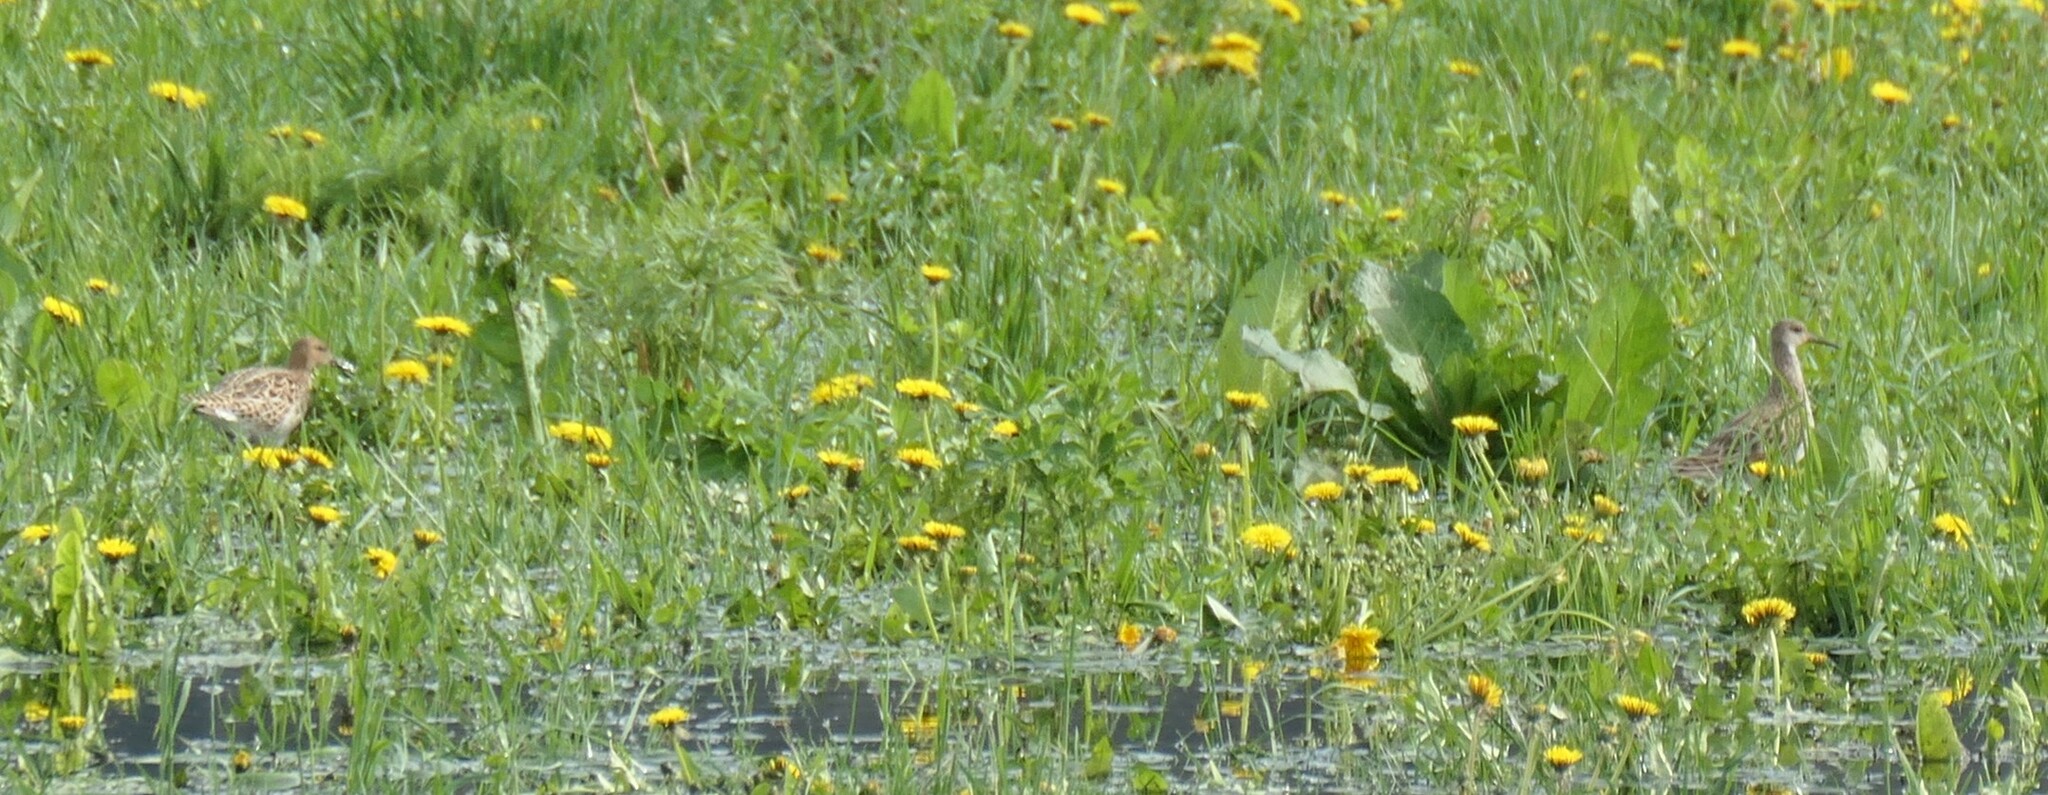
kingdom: Animalia
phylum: Chordata
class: Aves
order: Charadriiformes
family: Scolopacidae
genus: Calidris
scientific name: Calidris pugnax
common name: Ruff
